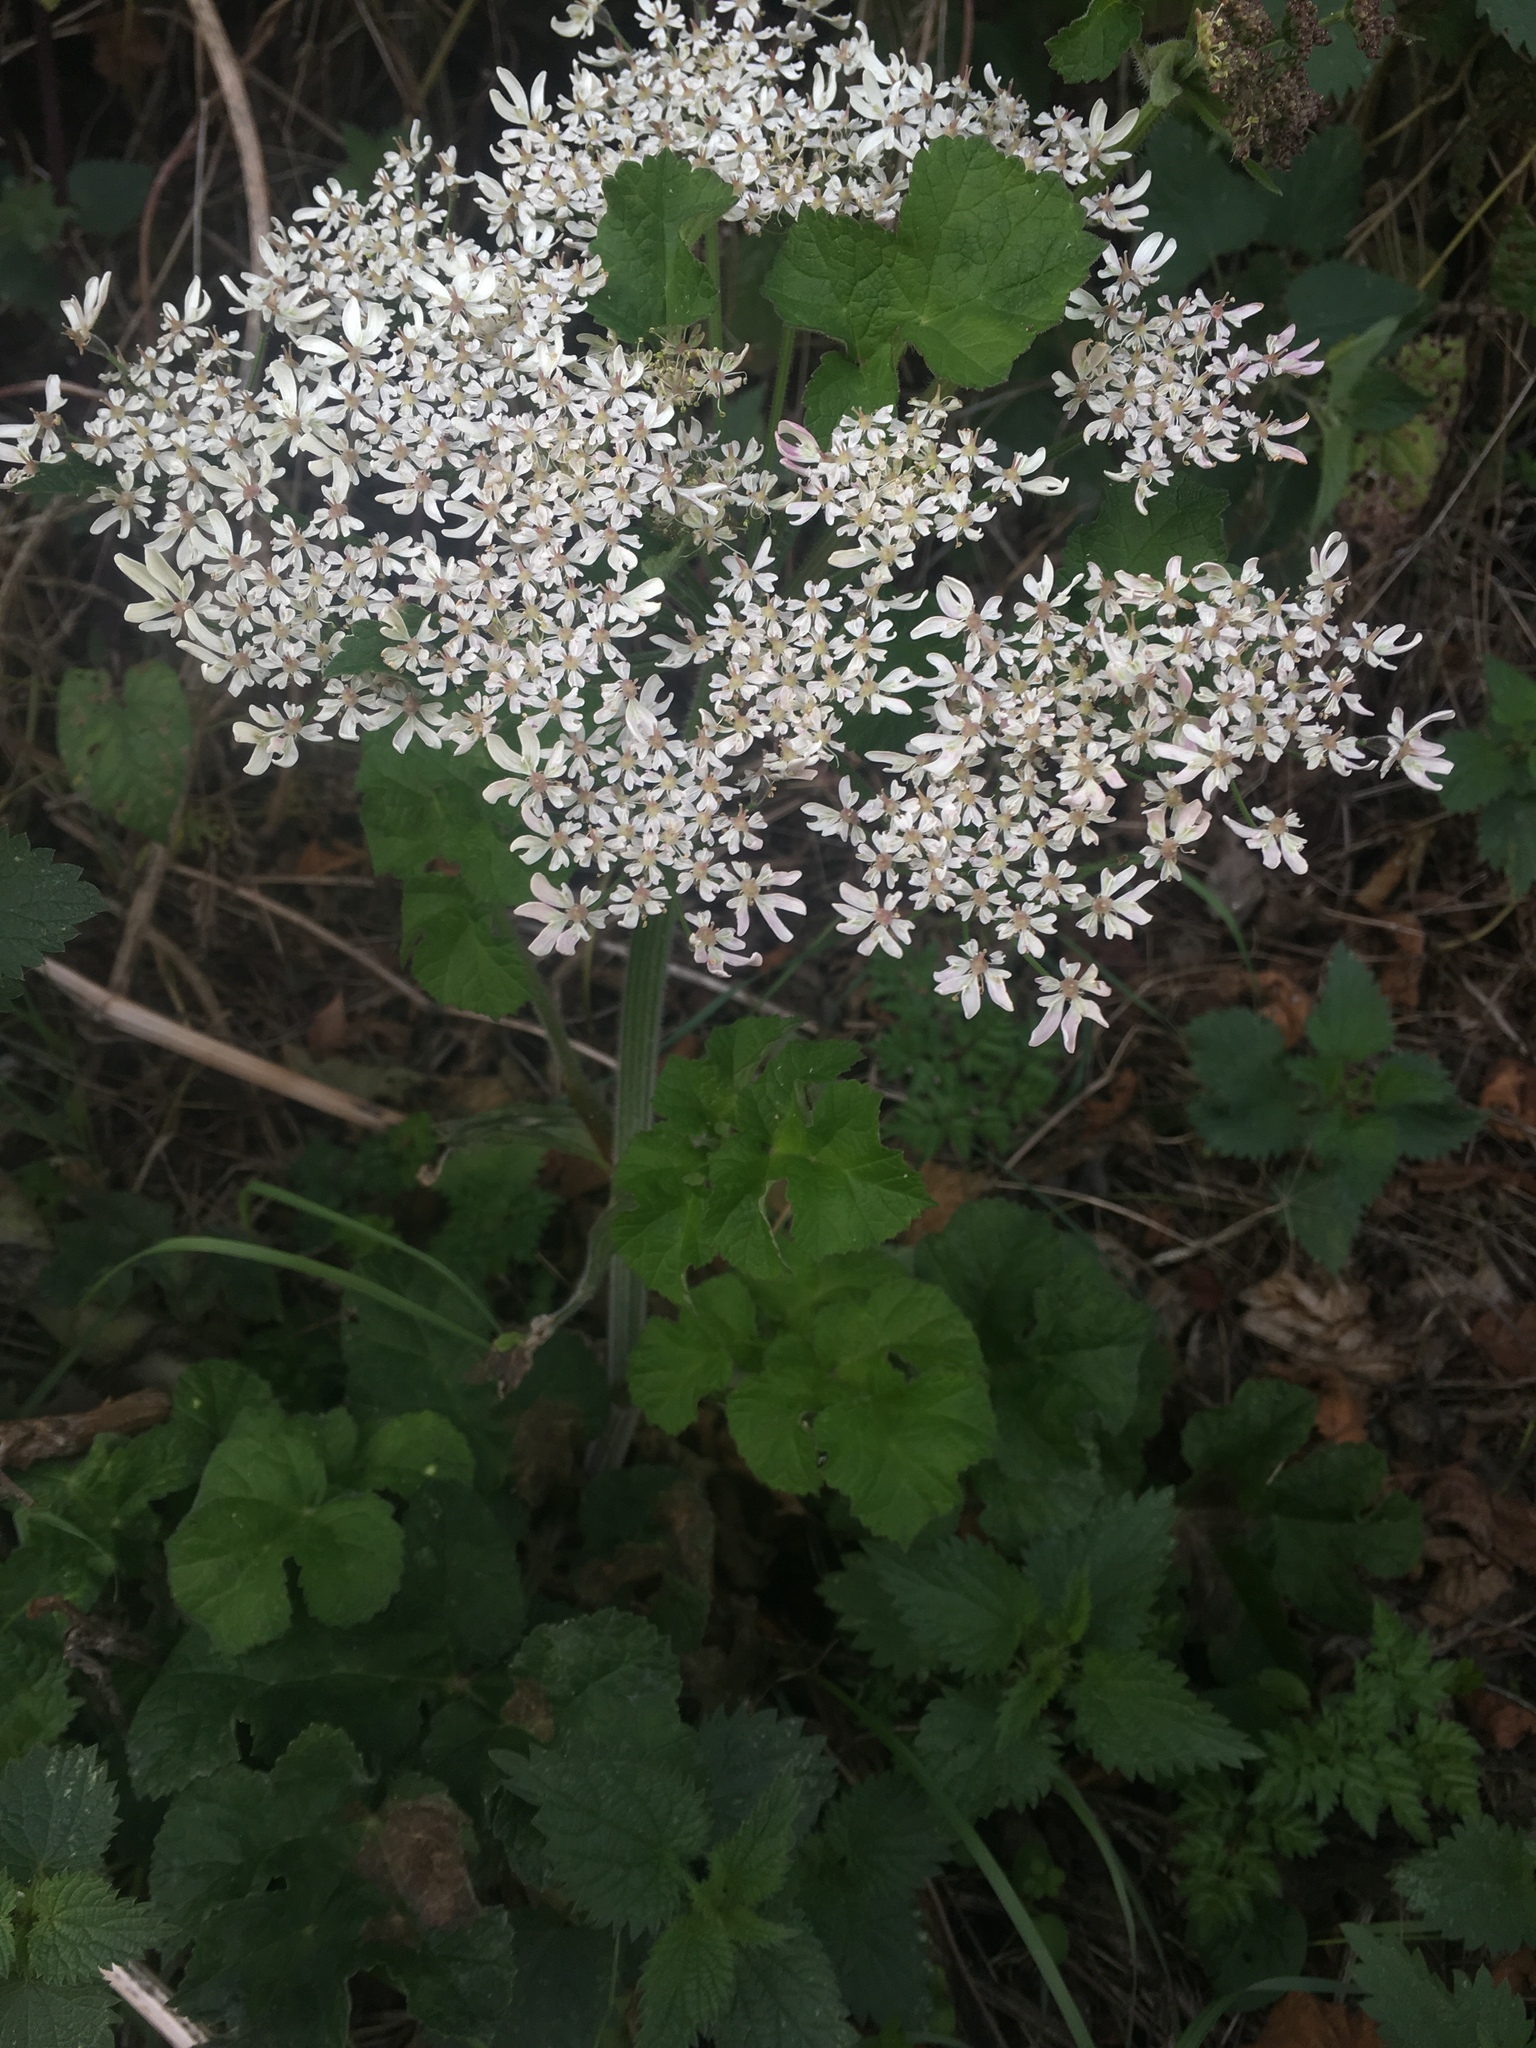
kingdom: Plantae
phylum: Tracheophyta
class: Magnoliopsida
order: Apiales
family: Apiaceae
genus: Heracleum
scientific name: Heracleum sphondylium
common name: Hogweed
